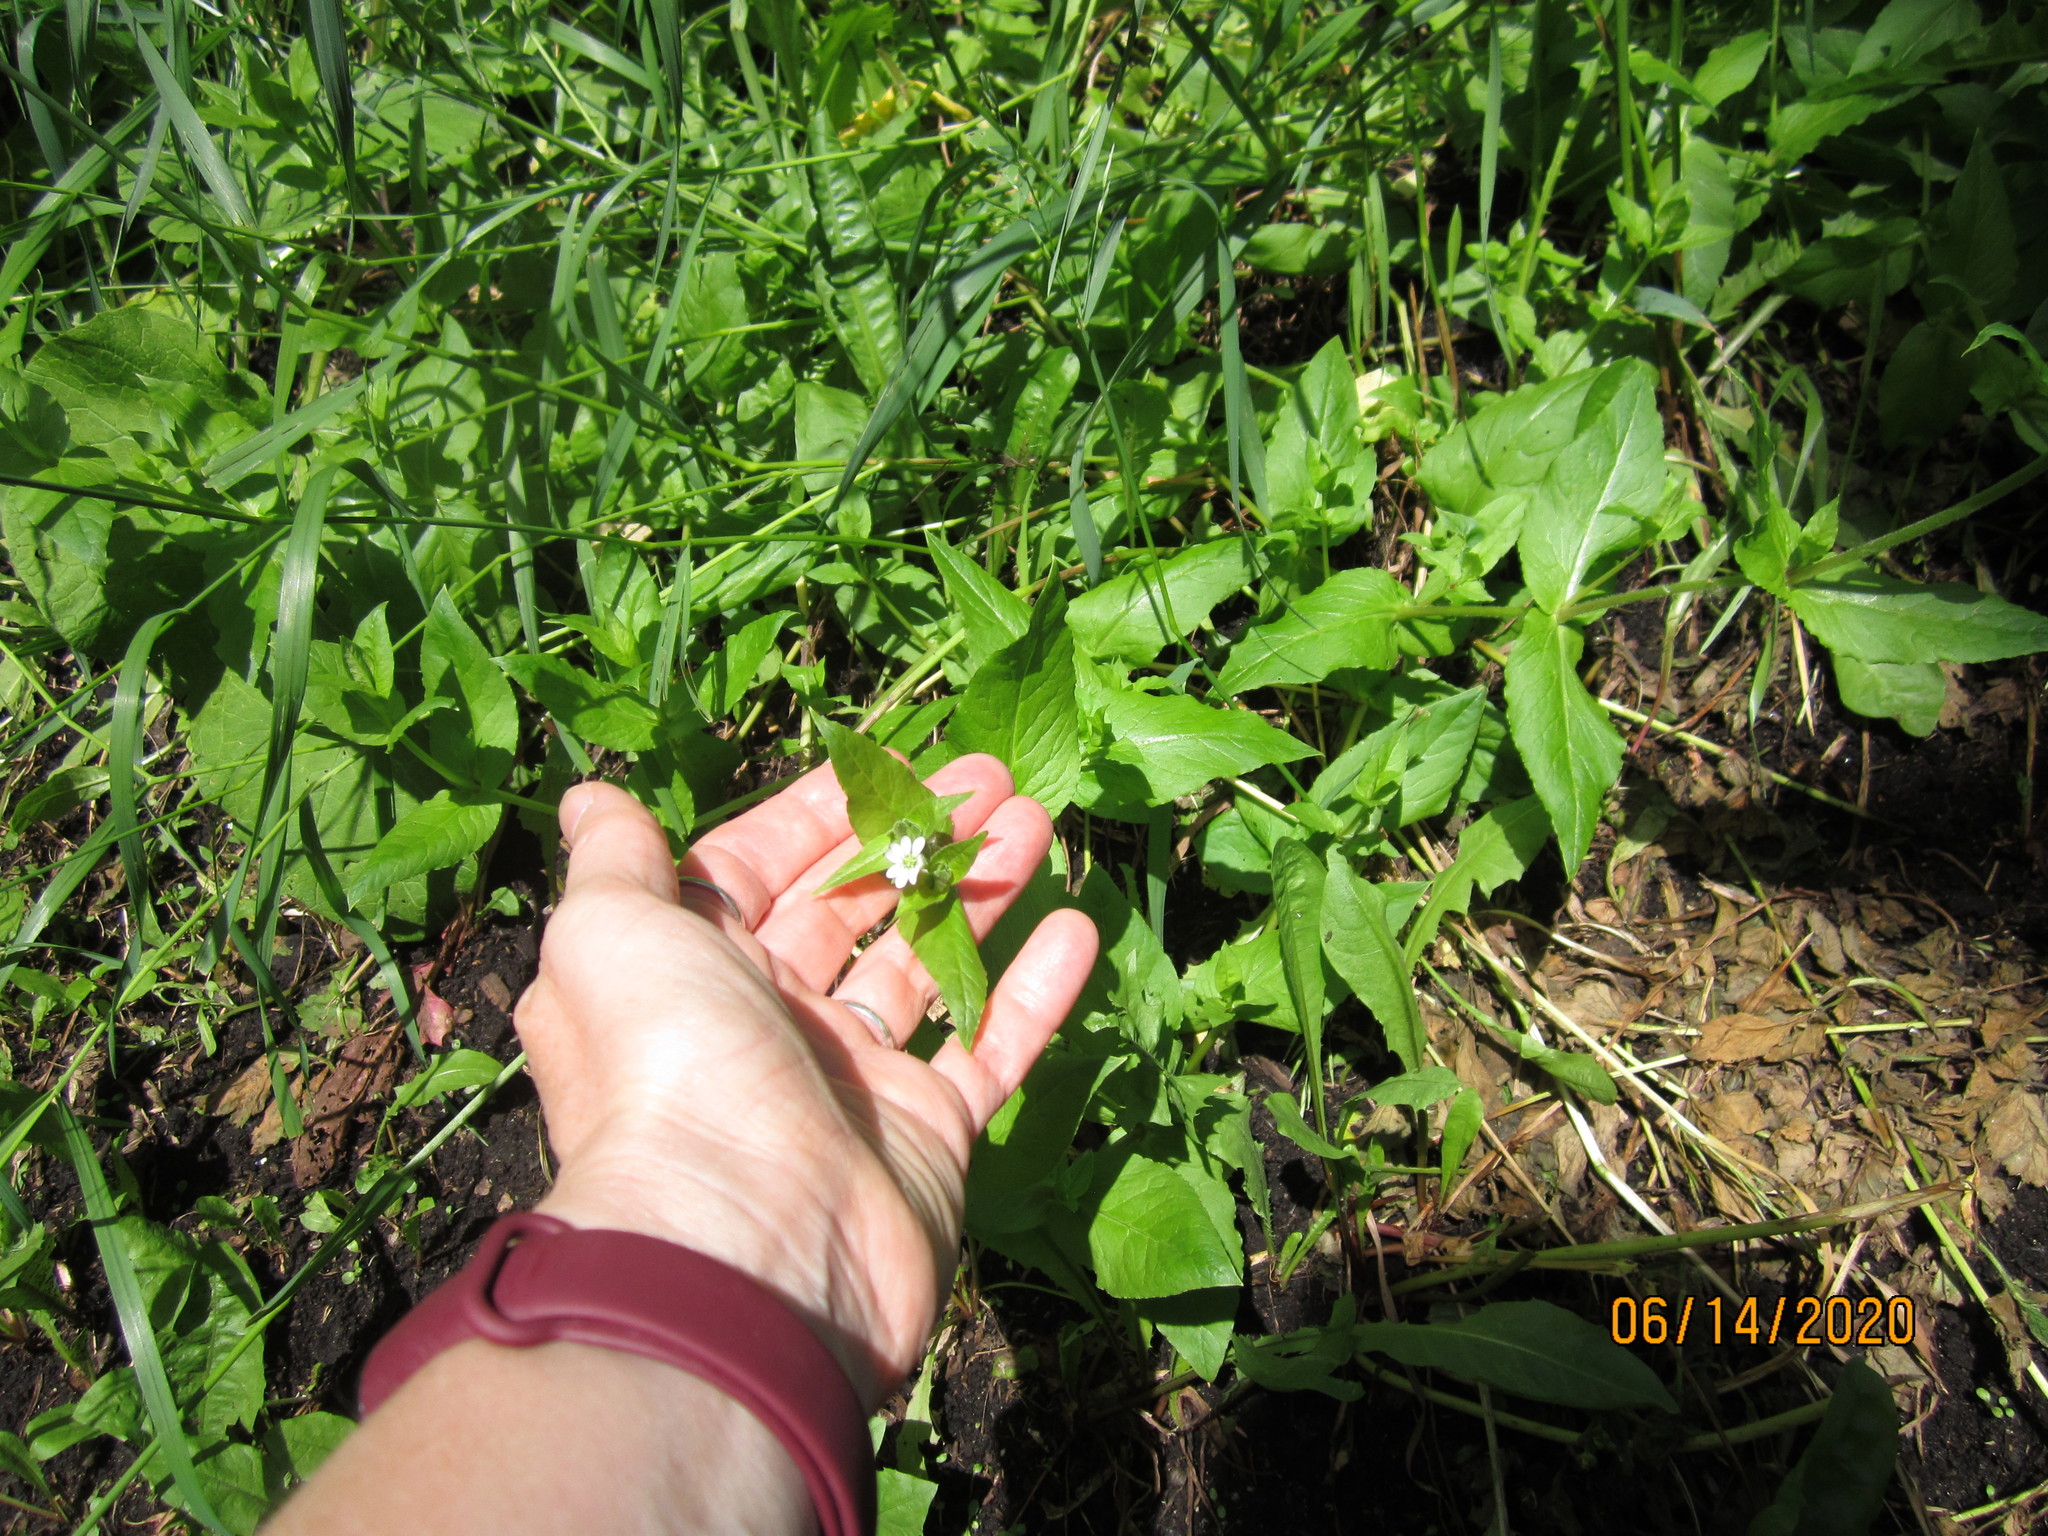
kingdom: Plantae
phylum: Tracheophyta
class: Magnoliopsida
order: Caryophyllales
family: Caryophyllaceae
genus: Stellaria
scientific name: Stellaria aquatica
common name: Water chickweed
